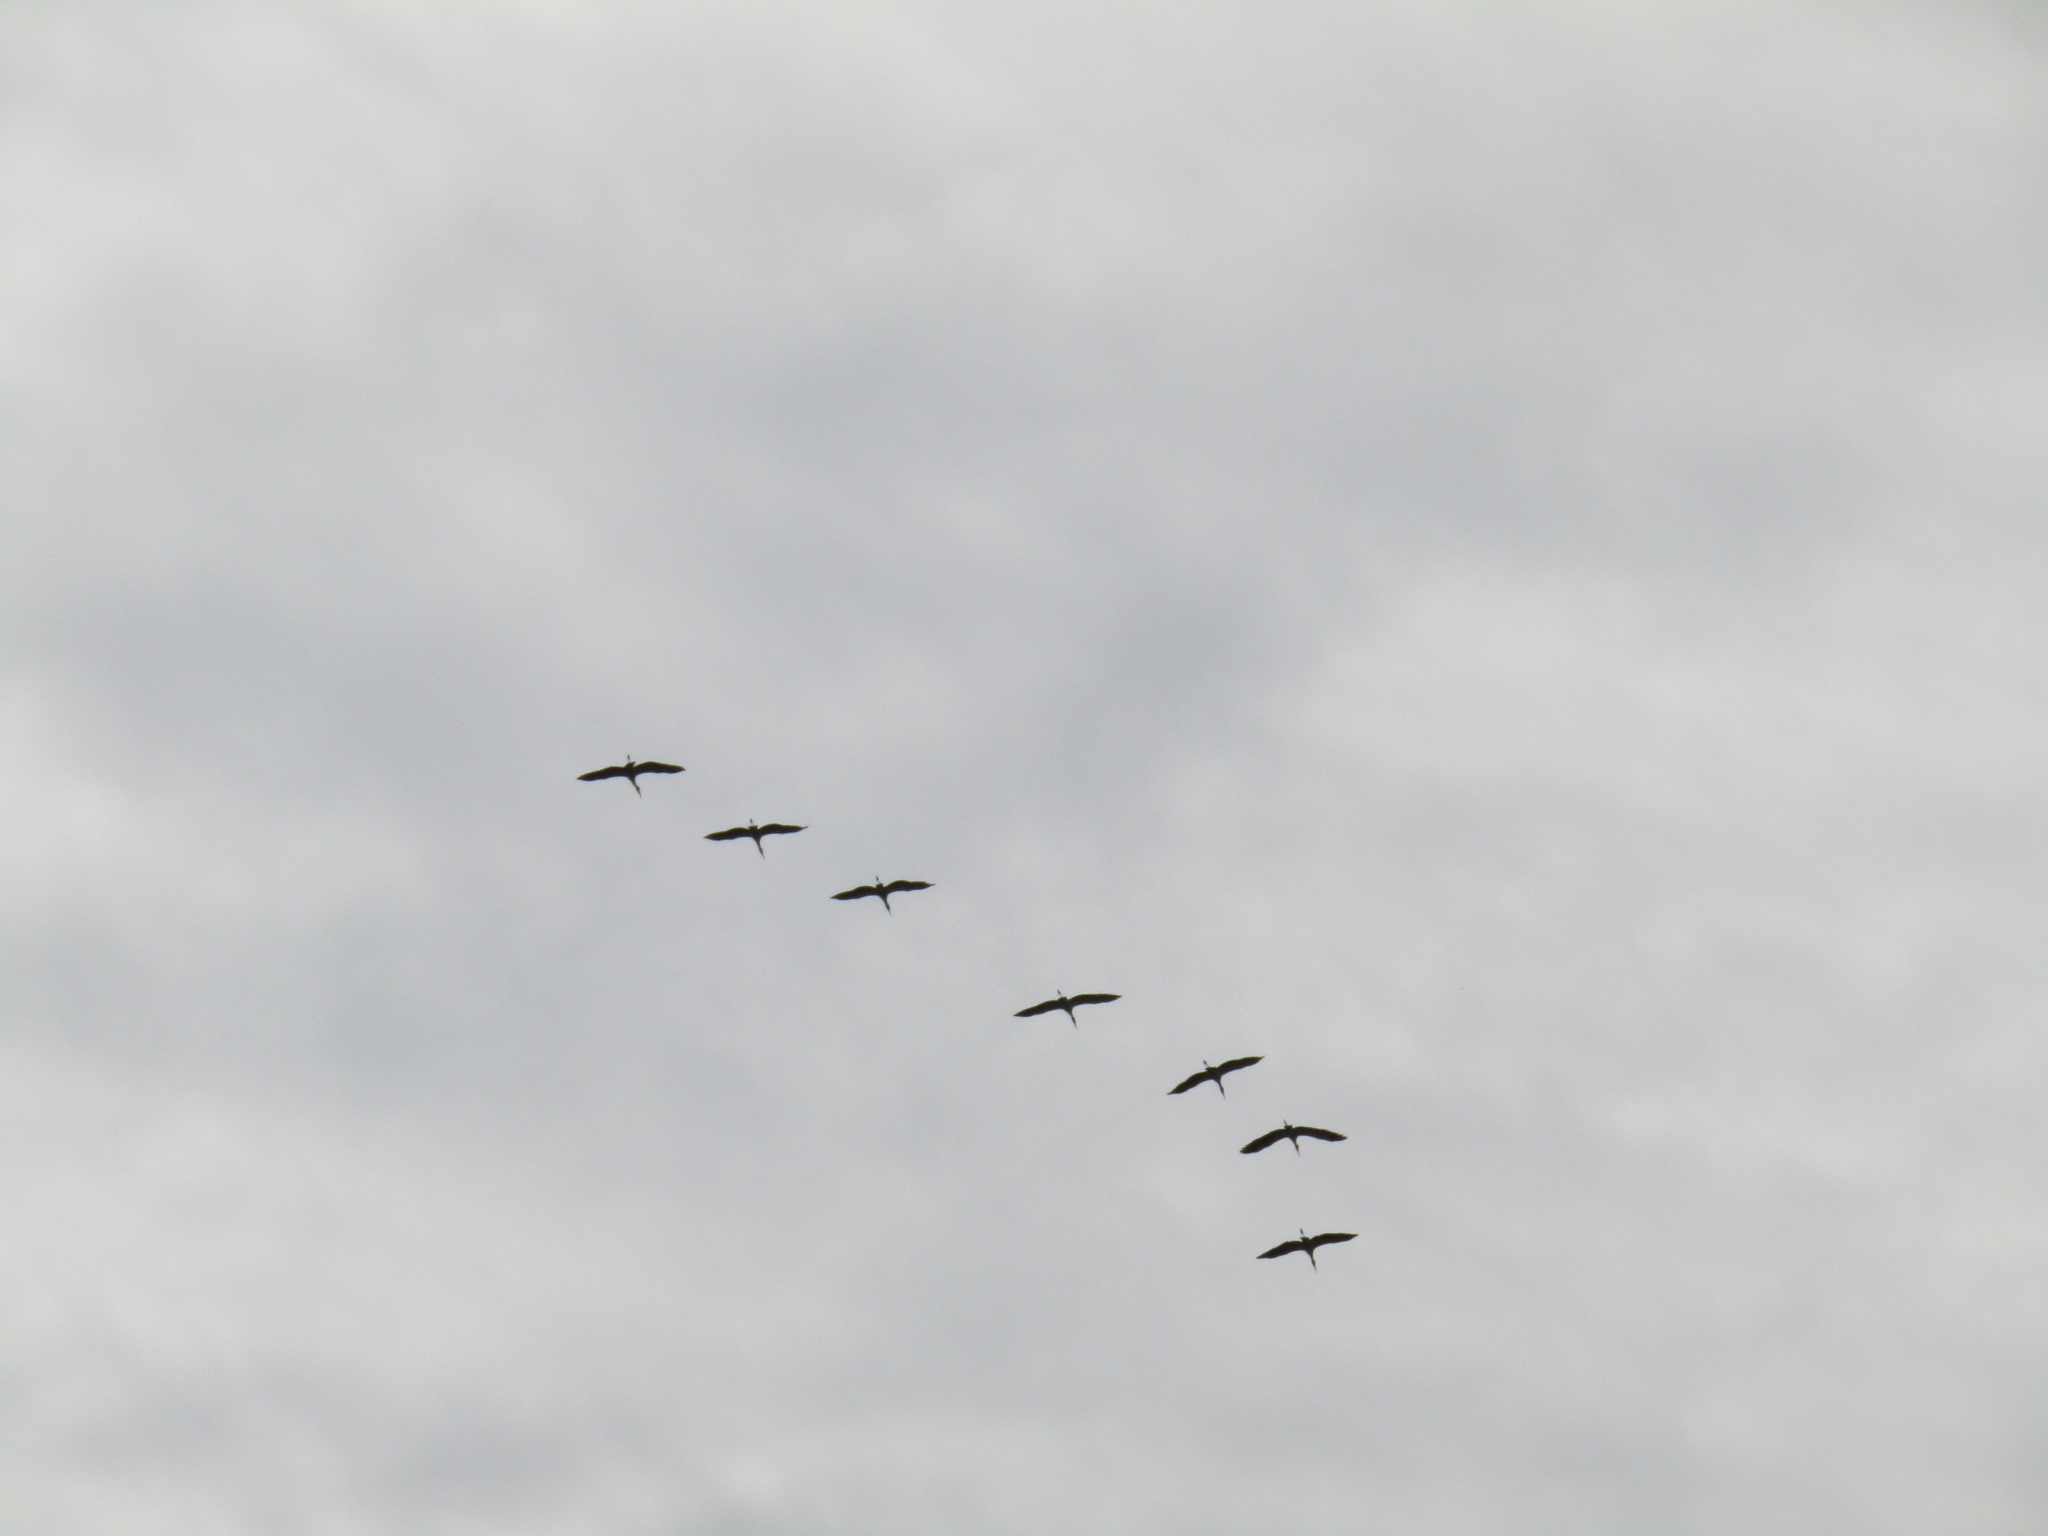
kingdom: Animalia
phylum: Chordata
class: Aves
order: Ciconiiformes
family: Ciconiidae
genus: Mycteria
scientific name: Mycteria americana
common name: Wood stork
